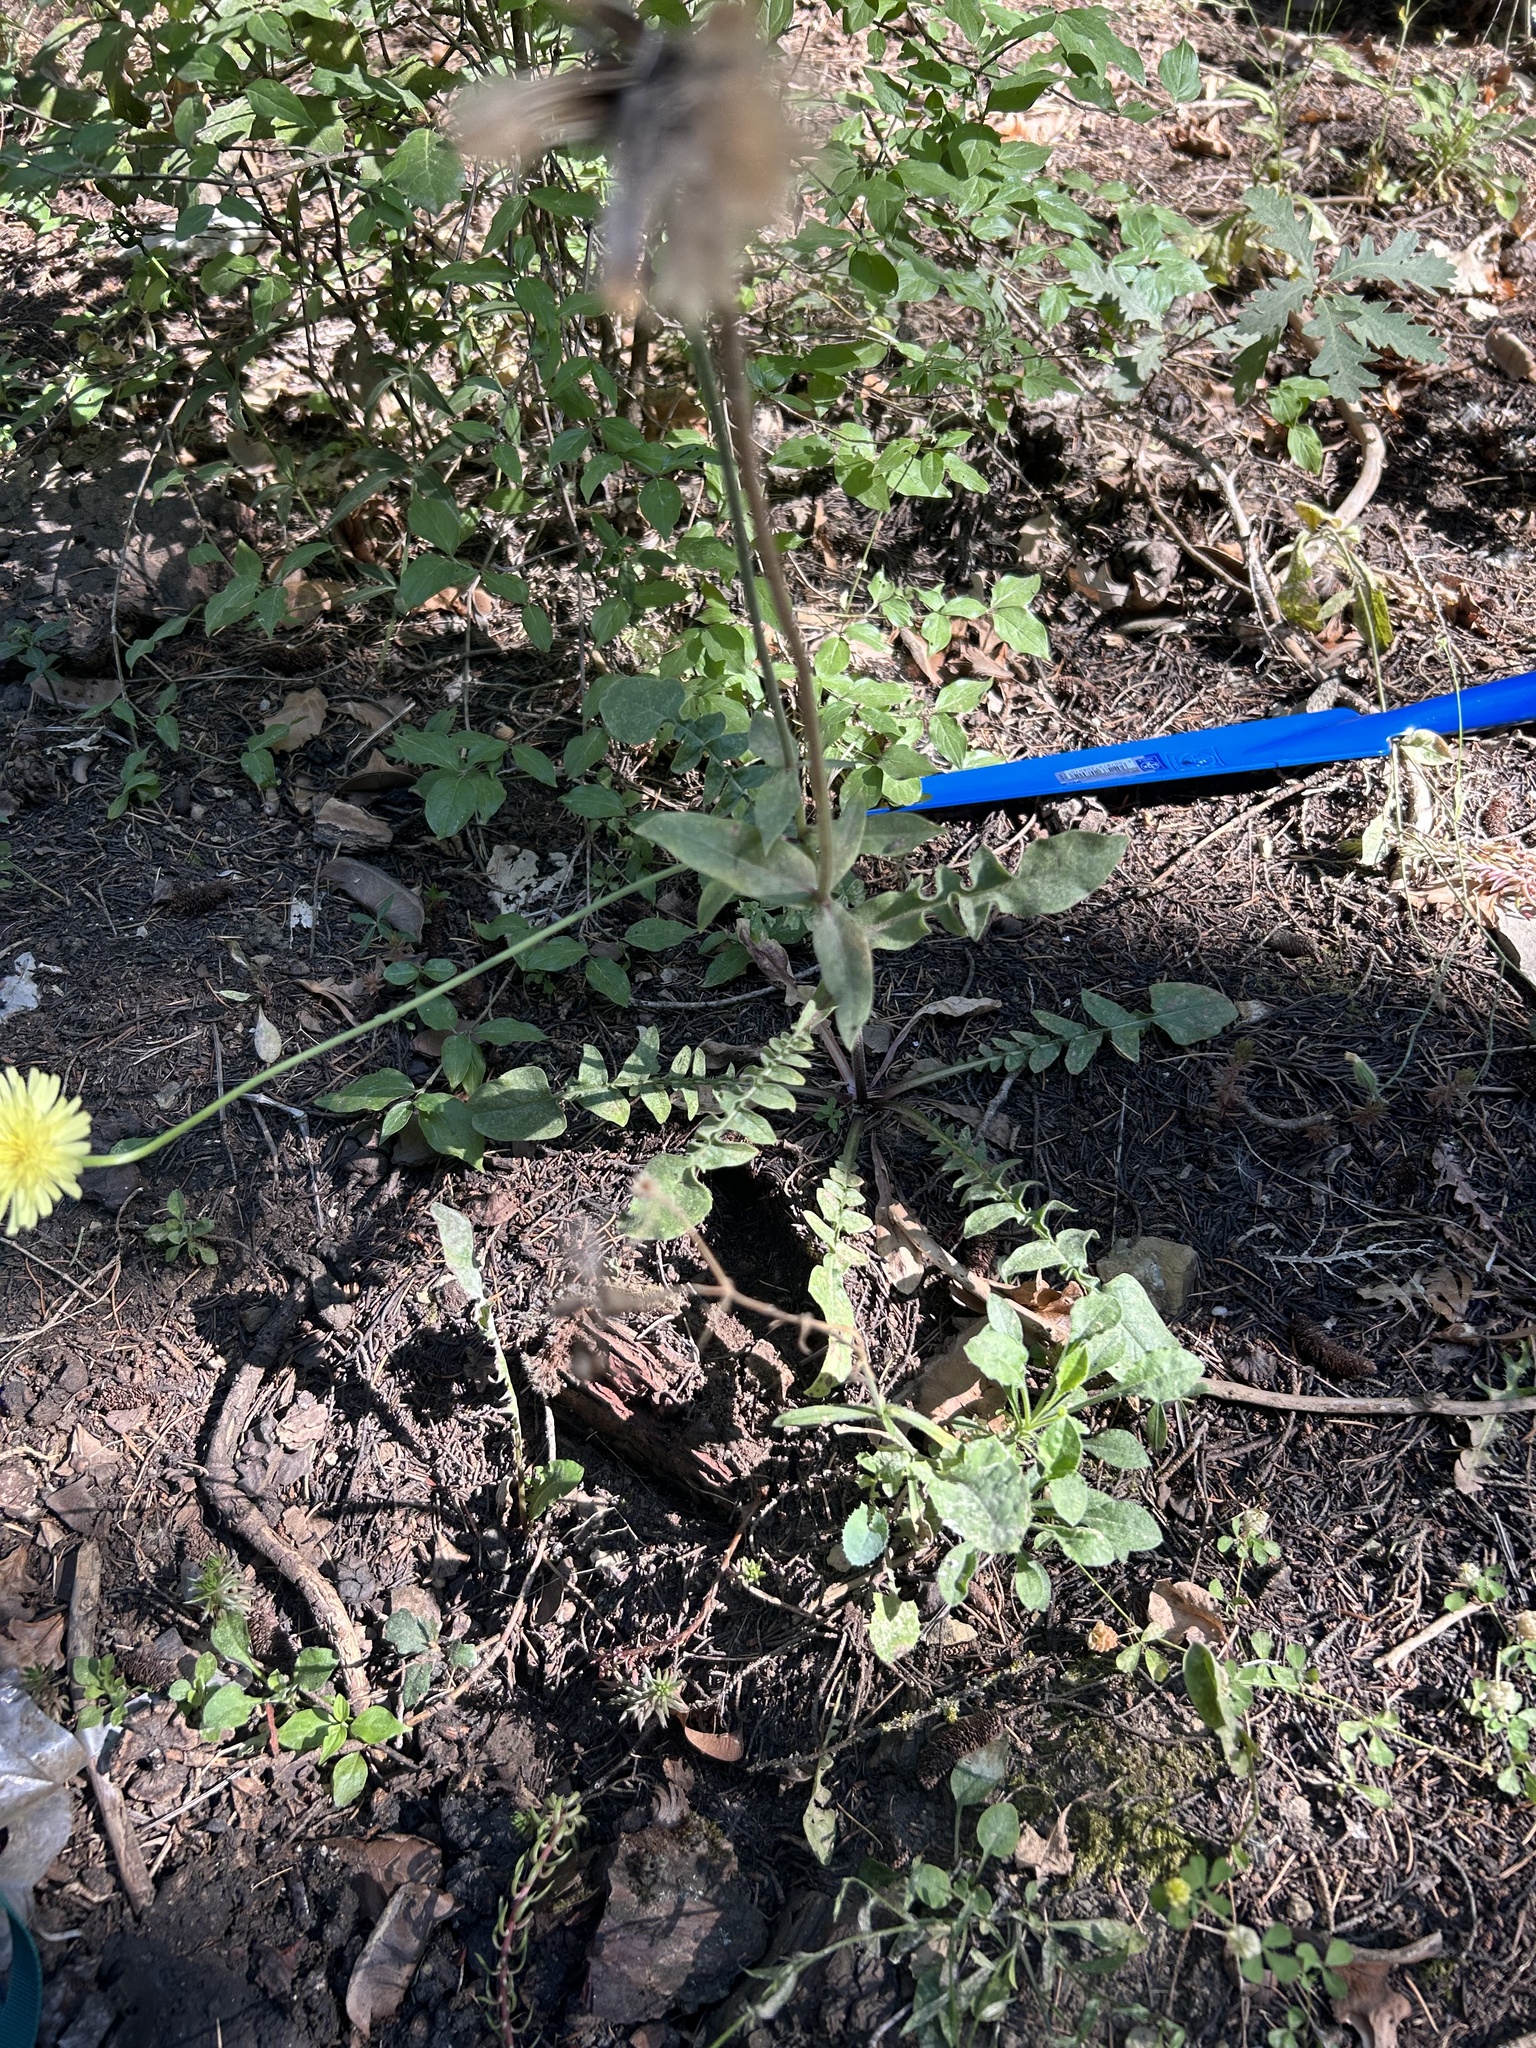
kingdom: Plantae
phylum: Tracheophyta
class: Magnoliopsida
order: Asterales
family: Asteraceae
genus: Urospermum
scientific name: Urospermum dalechampii
